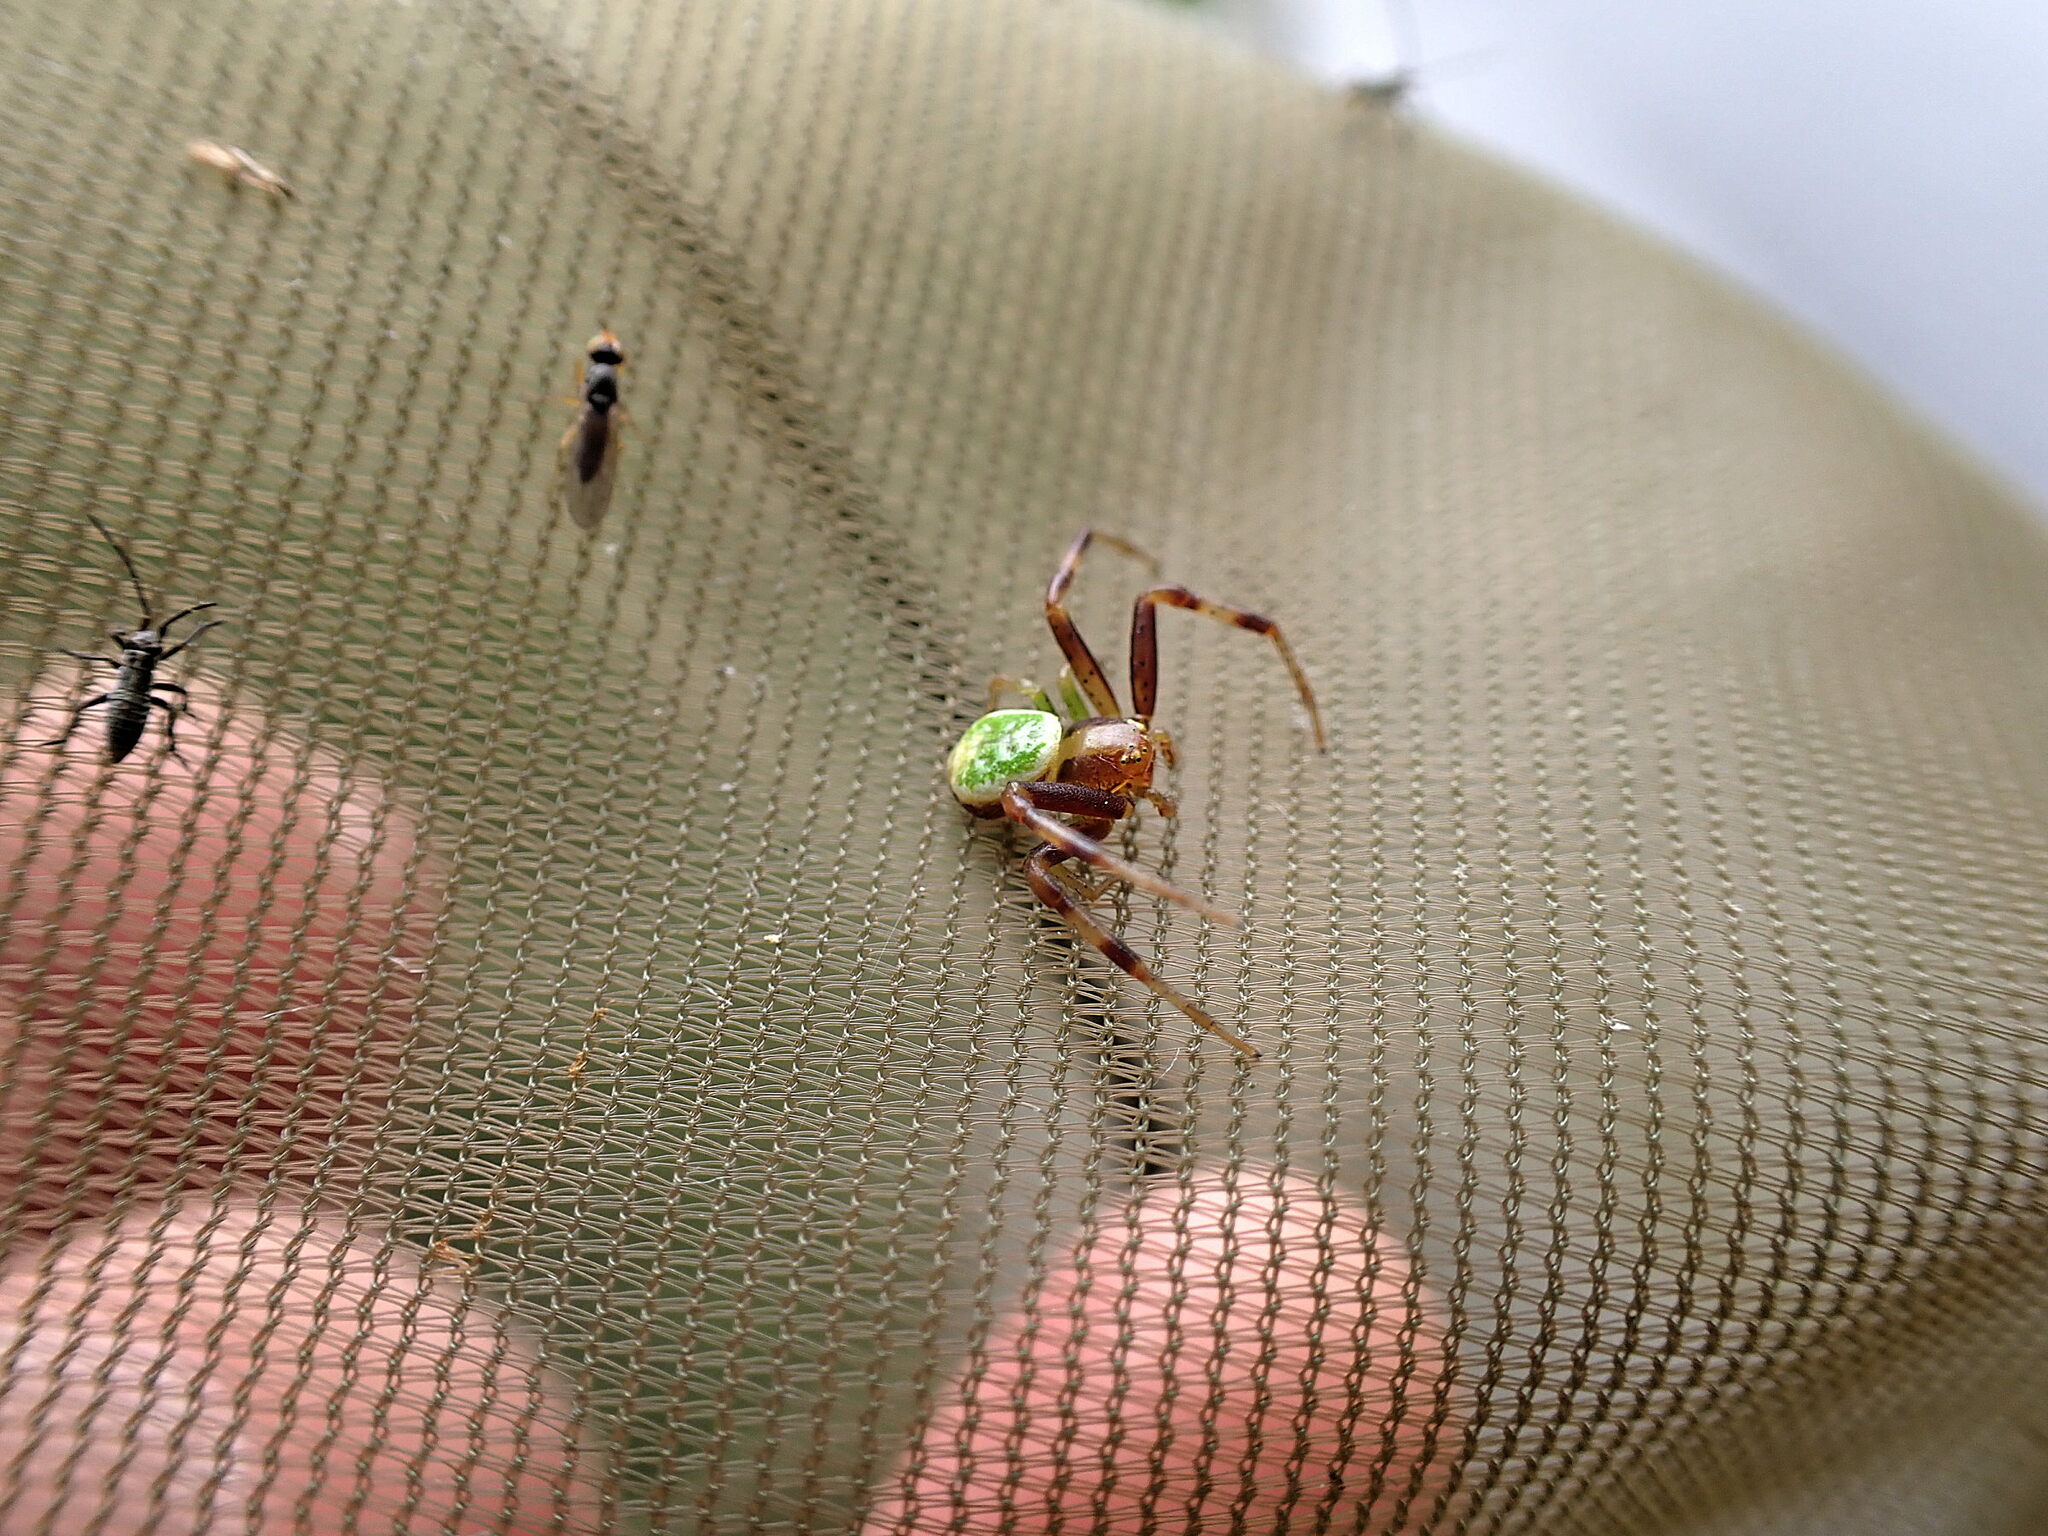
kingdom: Animalia
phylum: Arthropoda
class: Arachnida
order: Araneae
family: Thomisidae
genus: Ebrechtella
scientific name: Ebrechtella tricuspidata
